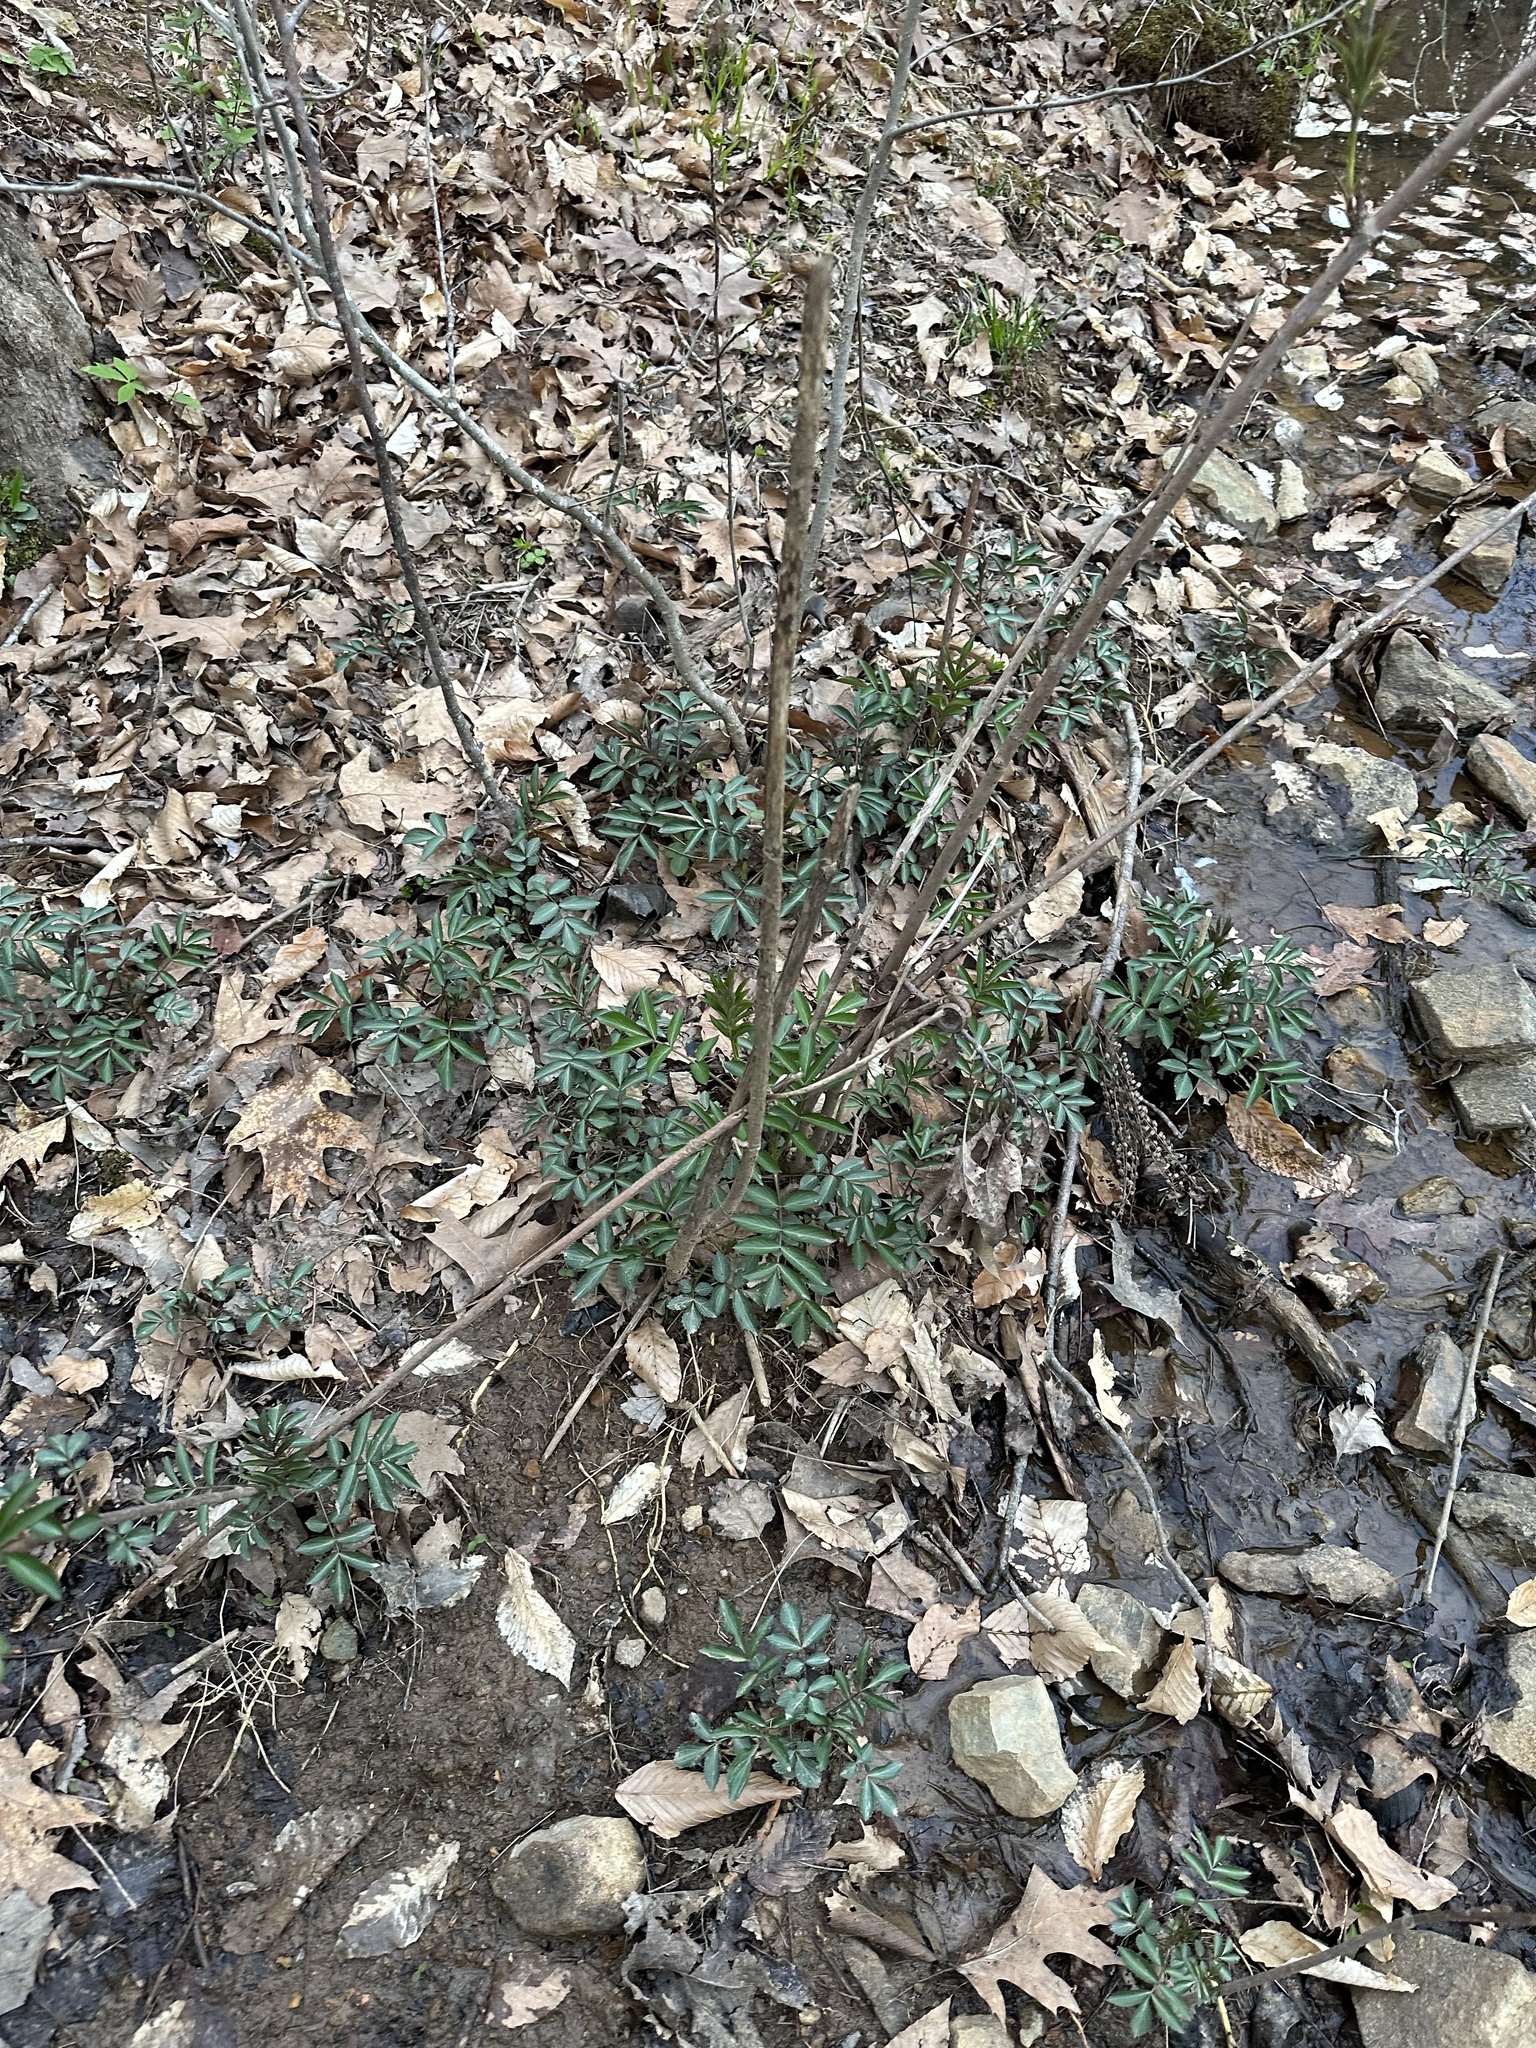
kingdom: Plantae
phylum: Tracheophyta
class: Magnoliopsida
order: Dipsacales
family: Viburnaceae
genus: Sambucus
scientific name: Sambucus canadensis
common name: American elder
